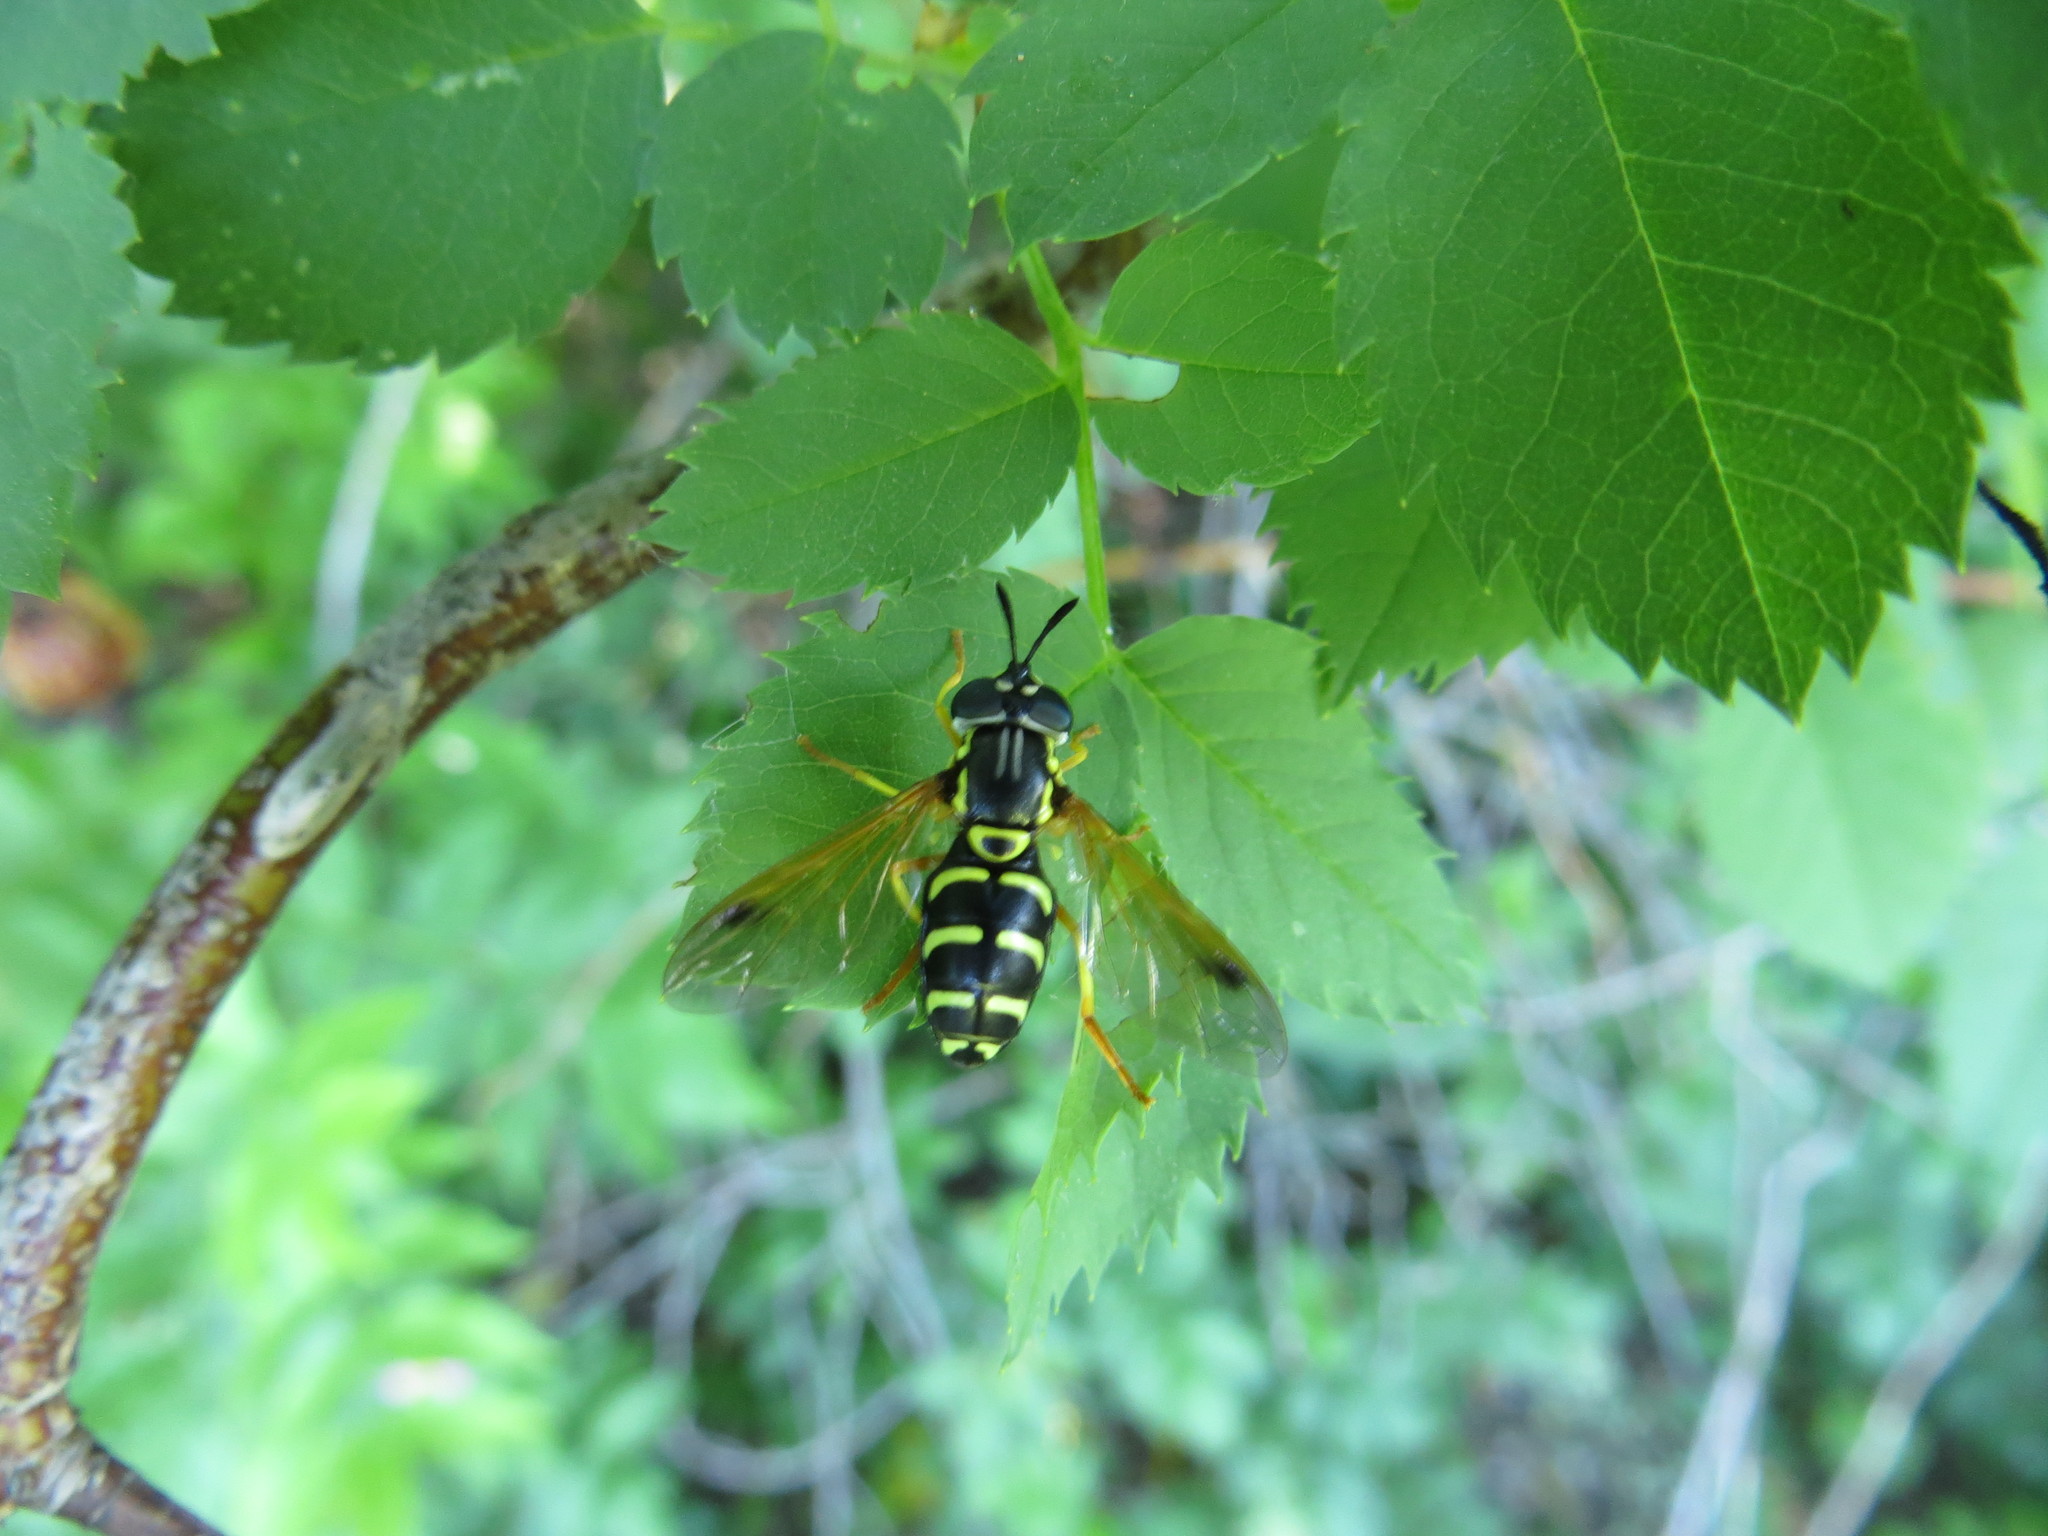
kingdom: Animalia
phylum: Arthropoda
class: Insecta
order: Diptera
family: Syrphidae
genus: Chrysotoxum
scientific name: Chrysotoxum festivum
